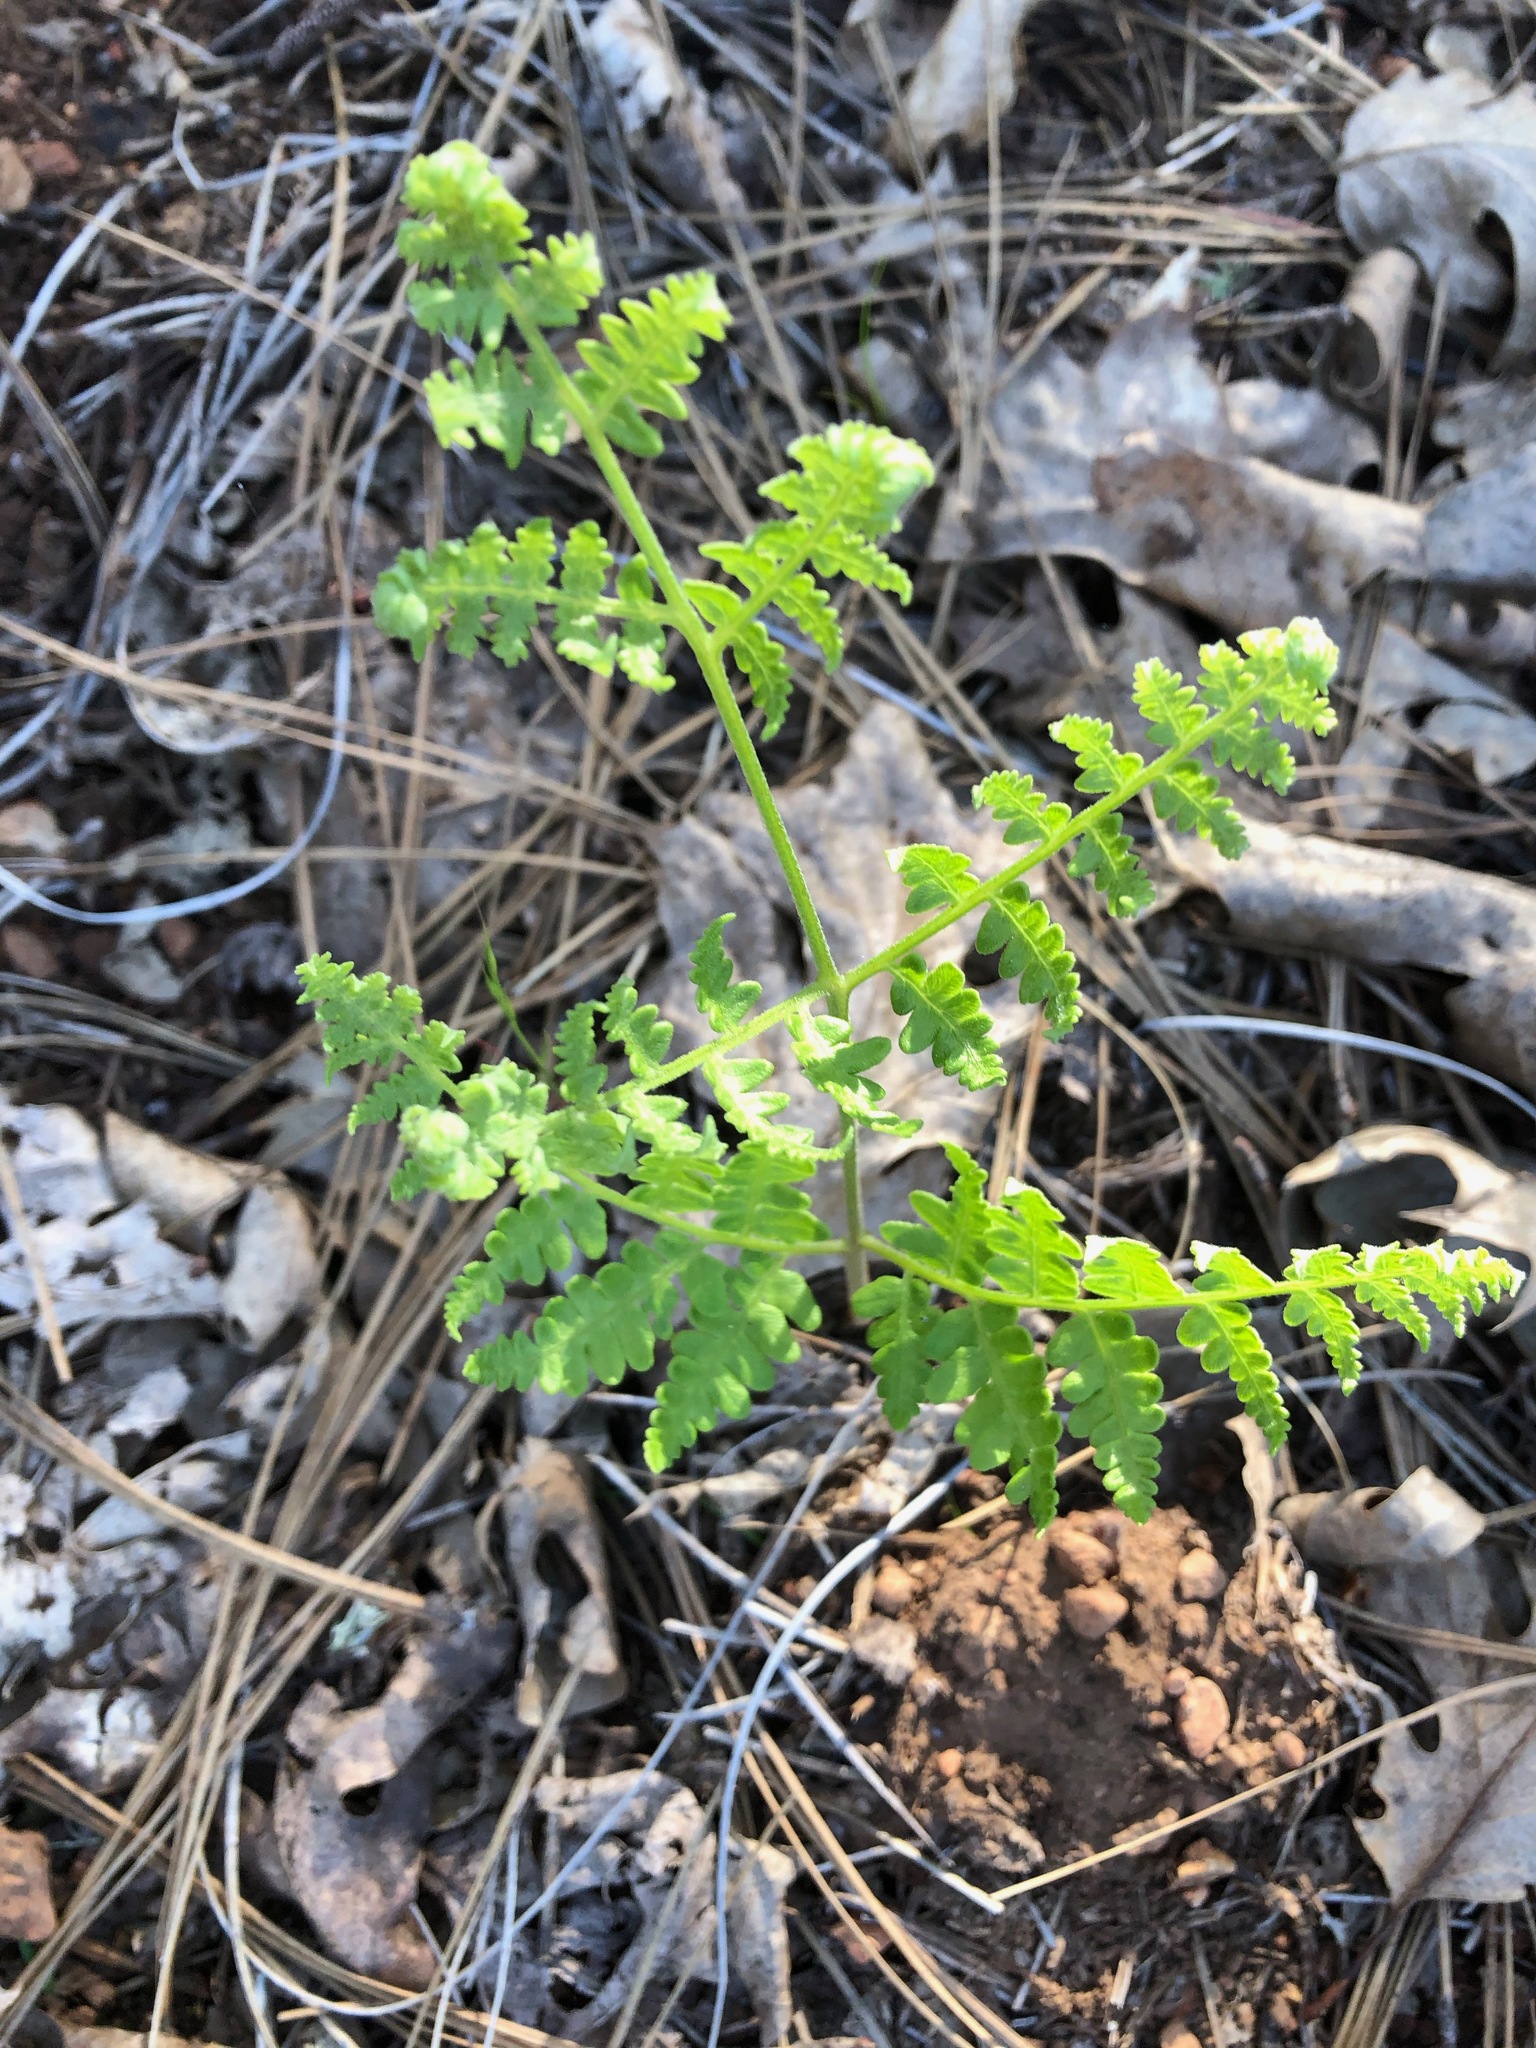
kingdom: Plantae
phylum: Tracheophyta
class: Polypodiopsida
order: Polypodiales
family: Dennstaedtiaceae
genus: Pteridium
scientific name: Pteridium aquilinum
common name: Bracken
